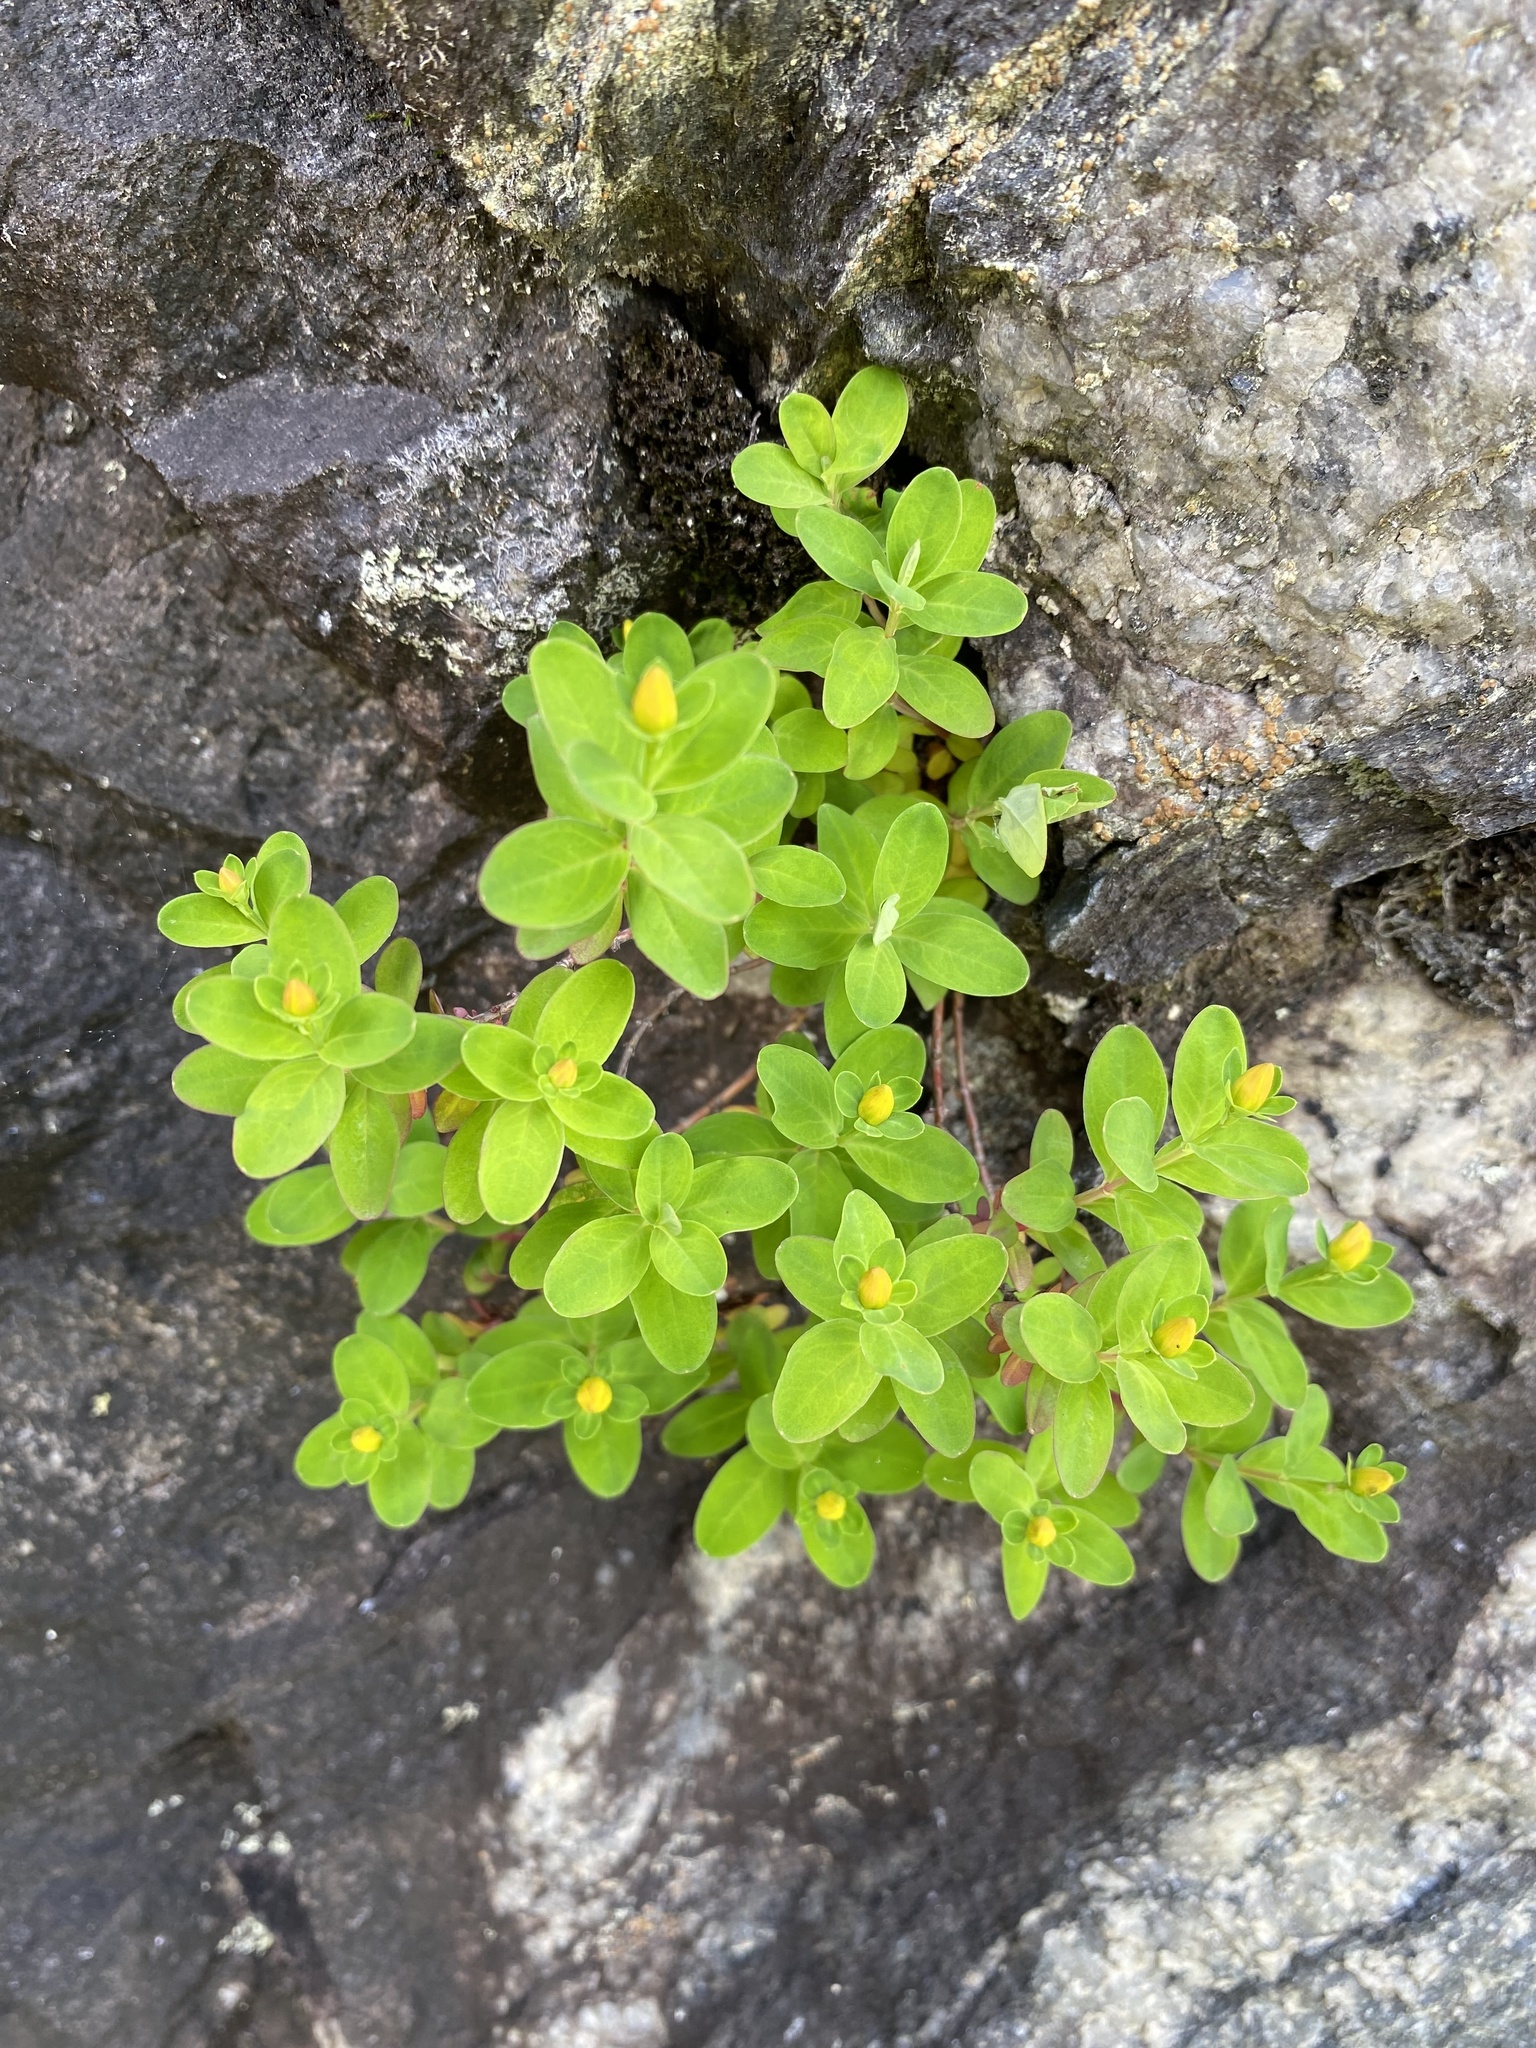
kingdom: Plantae
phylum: Tracheophyta
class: Magnoliopsida
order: Malpighiales
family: Hypericaceae
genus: Hypericum
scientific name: Hypericum buckleyi
